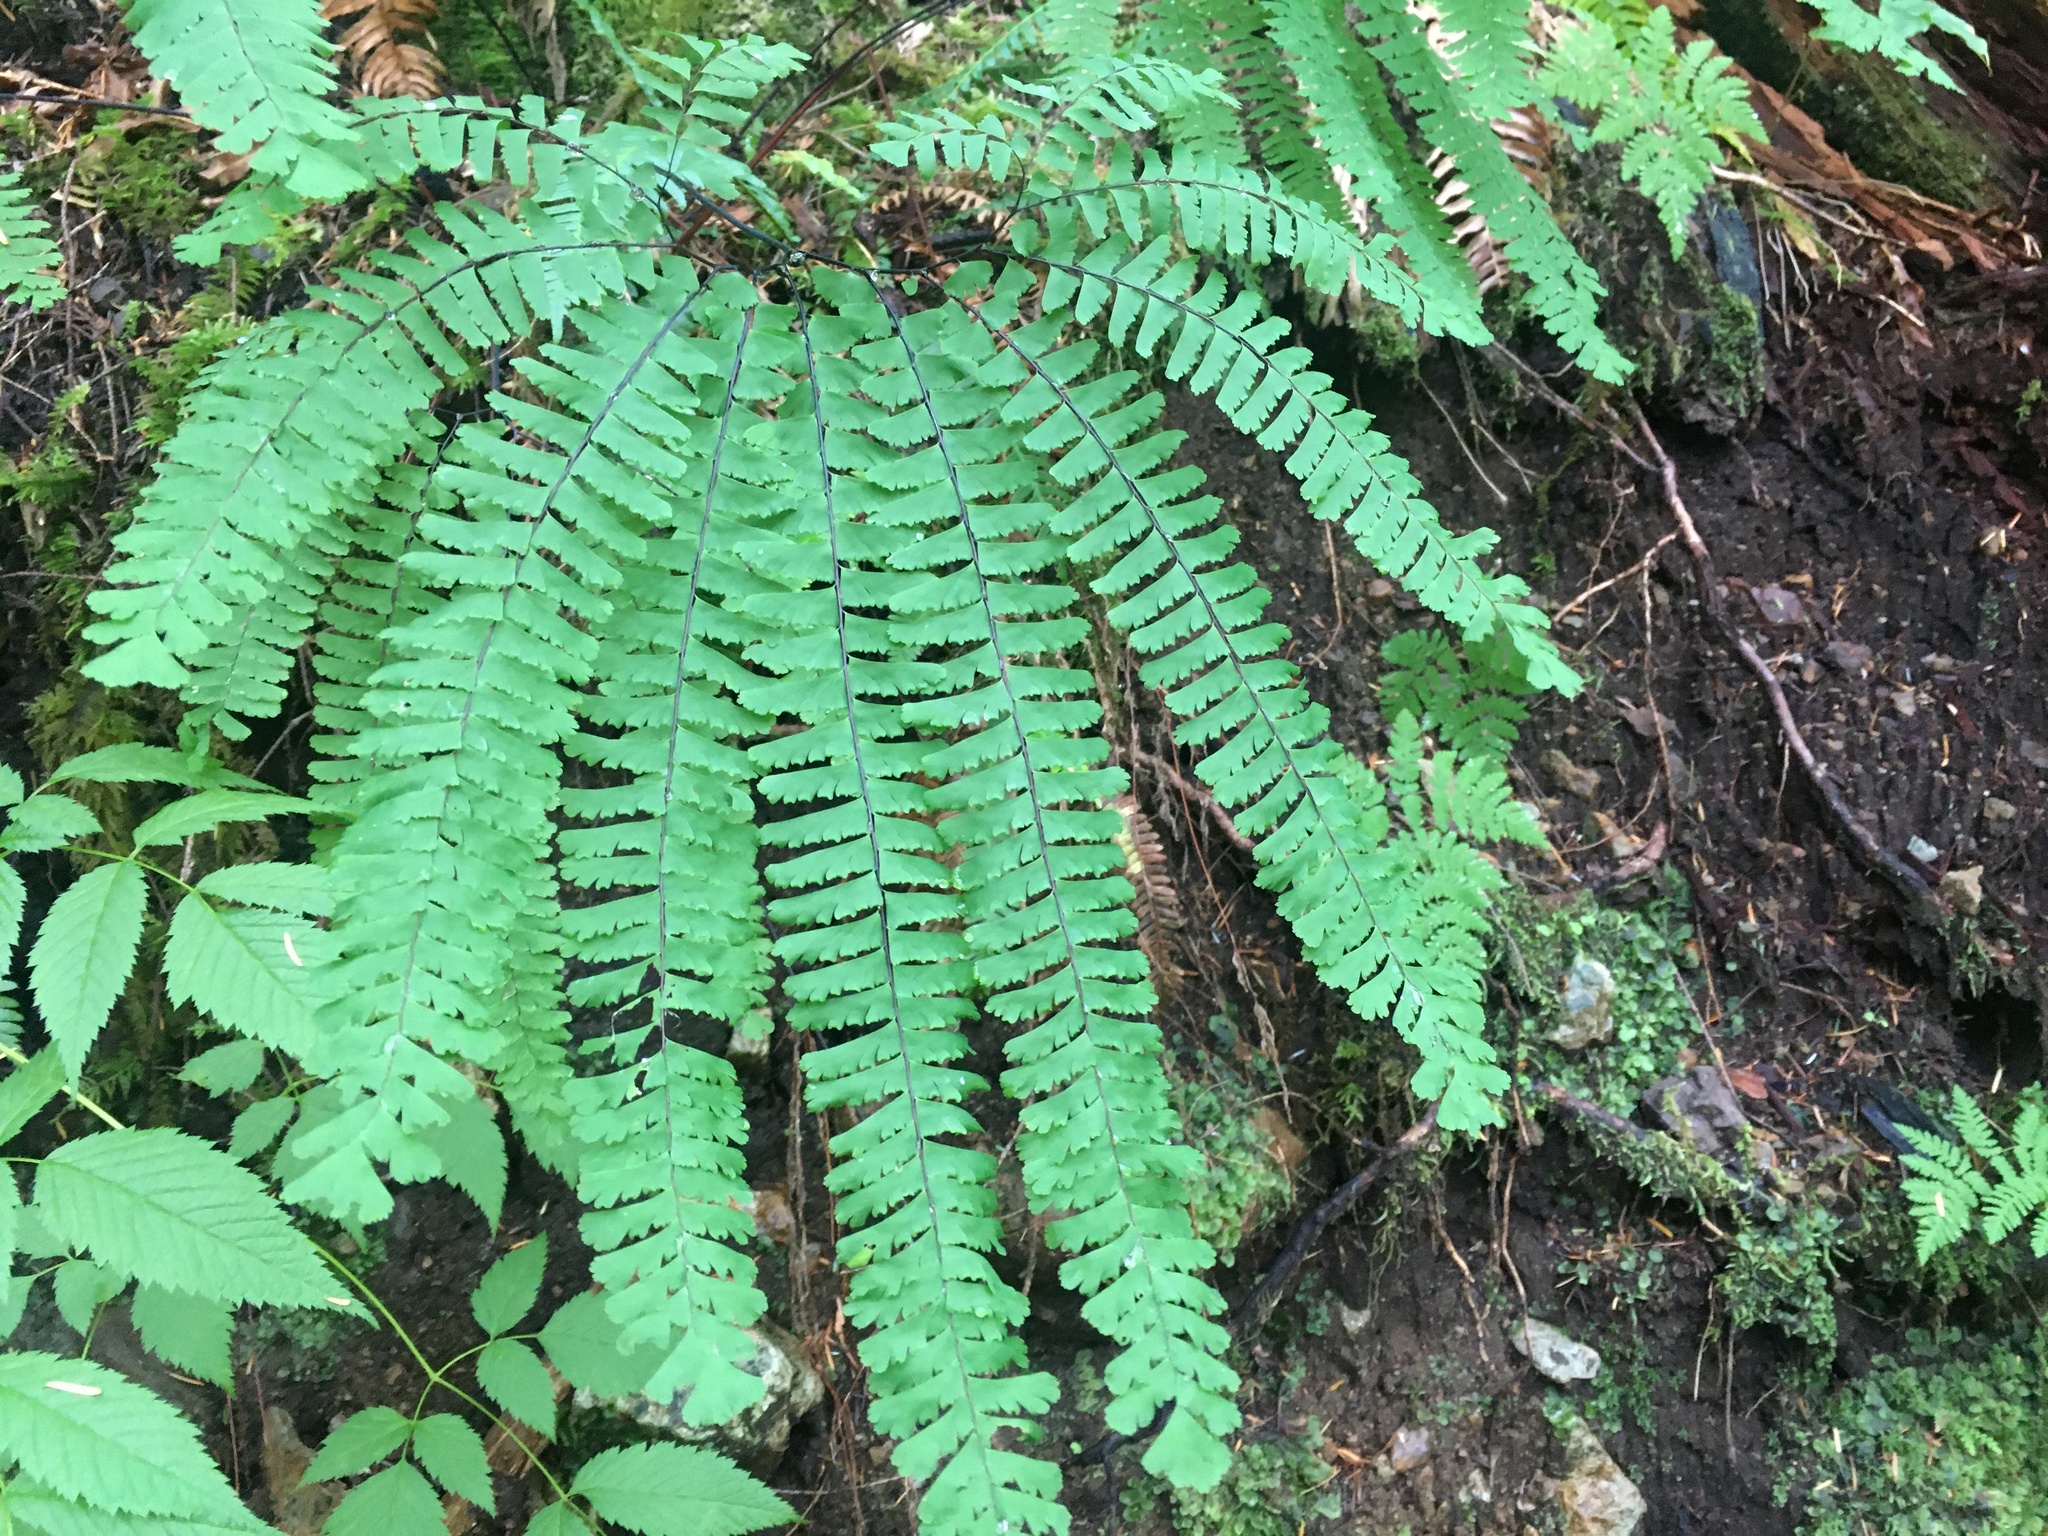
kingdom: Plantae
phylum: Tracheophyta
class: Polypodiopsida
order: Polypodiales
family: Pteridaceae
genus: Adiantum
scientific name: Adiantum aleuticum
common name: Aleutian maidenhair fern
